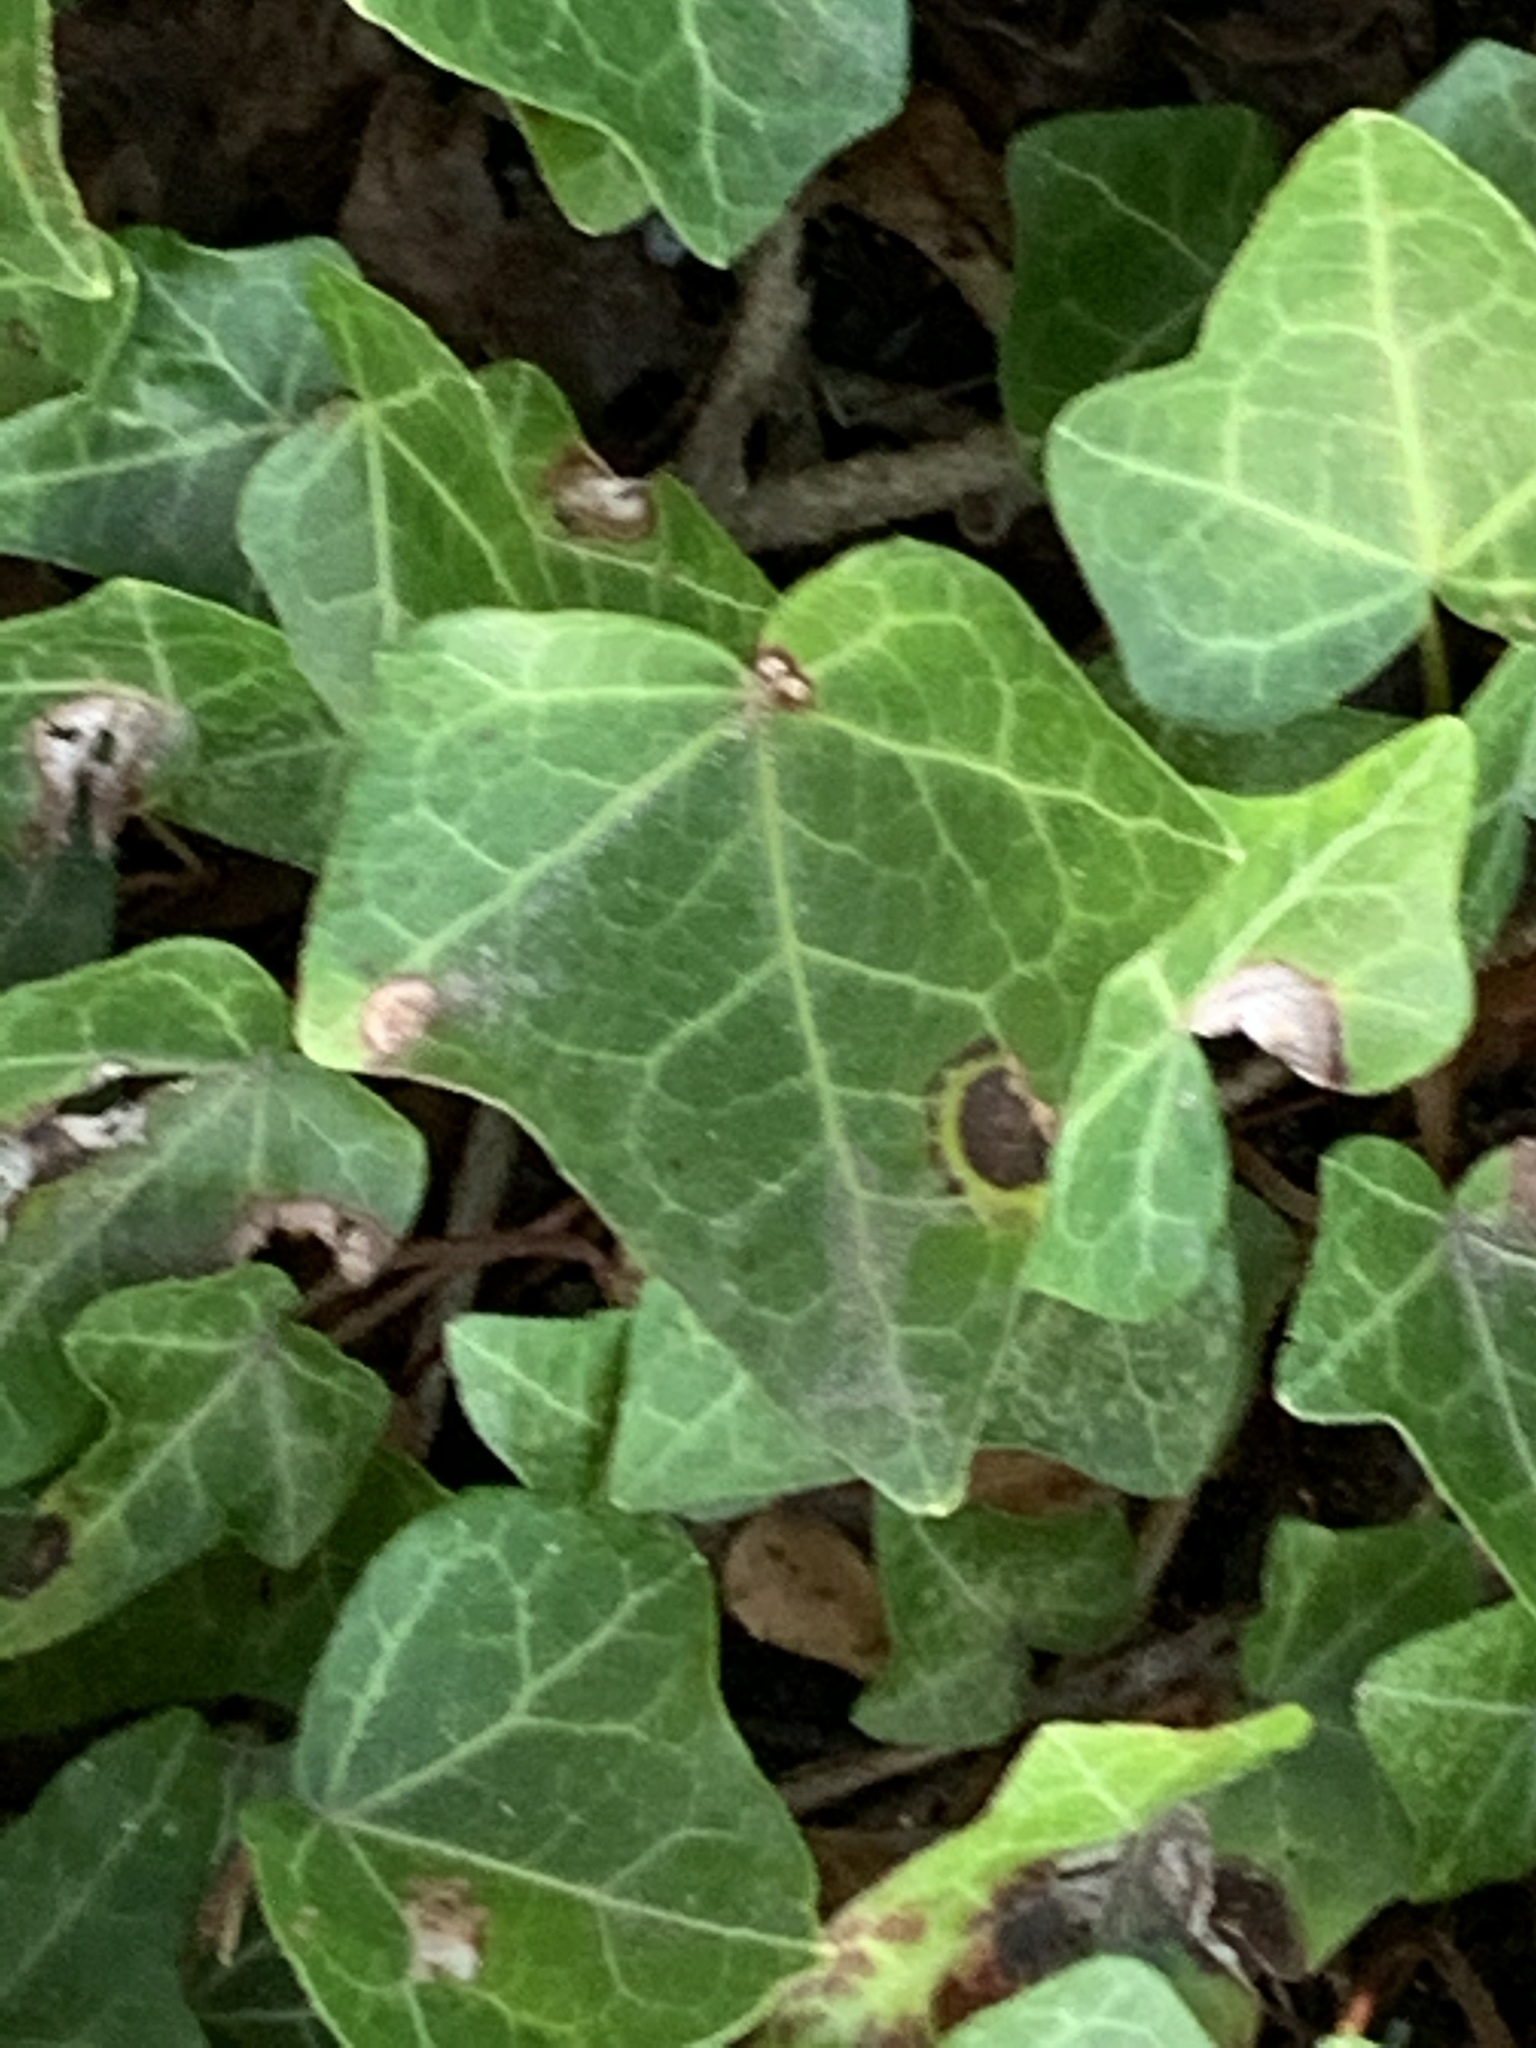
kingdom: Plantae
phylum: Tracheophyta
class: Magnoliopsida
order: Apiales
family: Araliaceae
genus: Hedera
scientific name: Hedera helix
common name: Ivy
